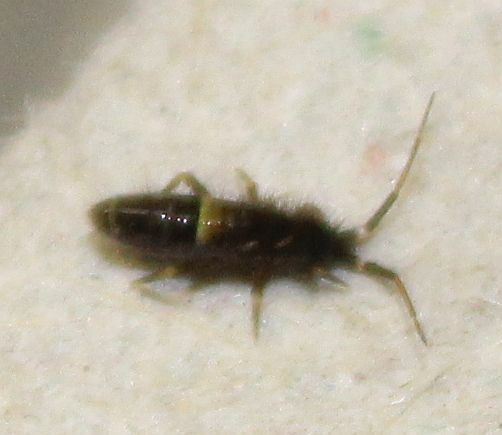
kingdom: Animalia
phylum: Arthropoda
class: Collembola
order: Entomobryomorpha
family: Orchesellidae
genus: Orchesella
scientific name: Orchesella cincta
